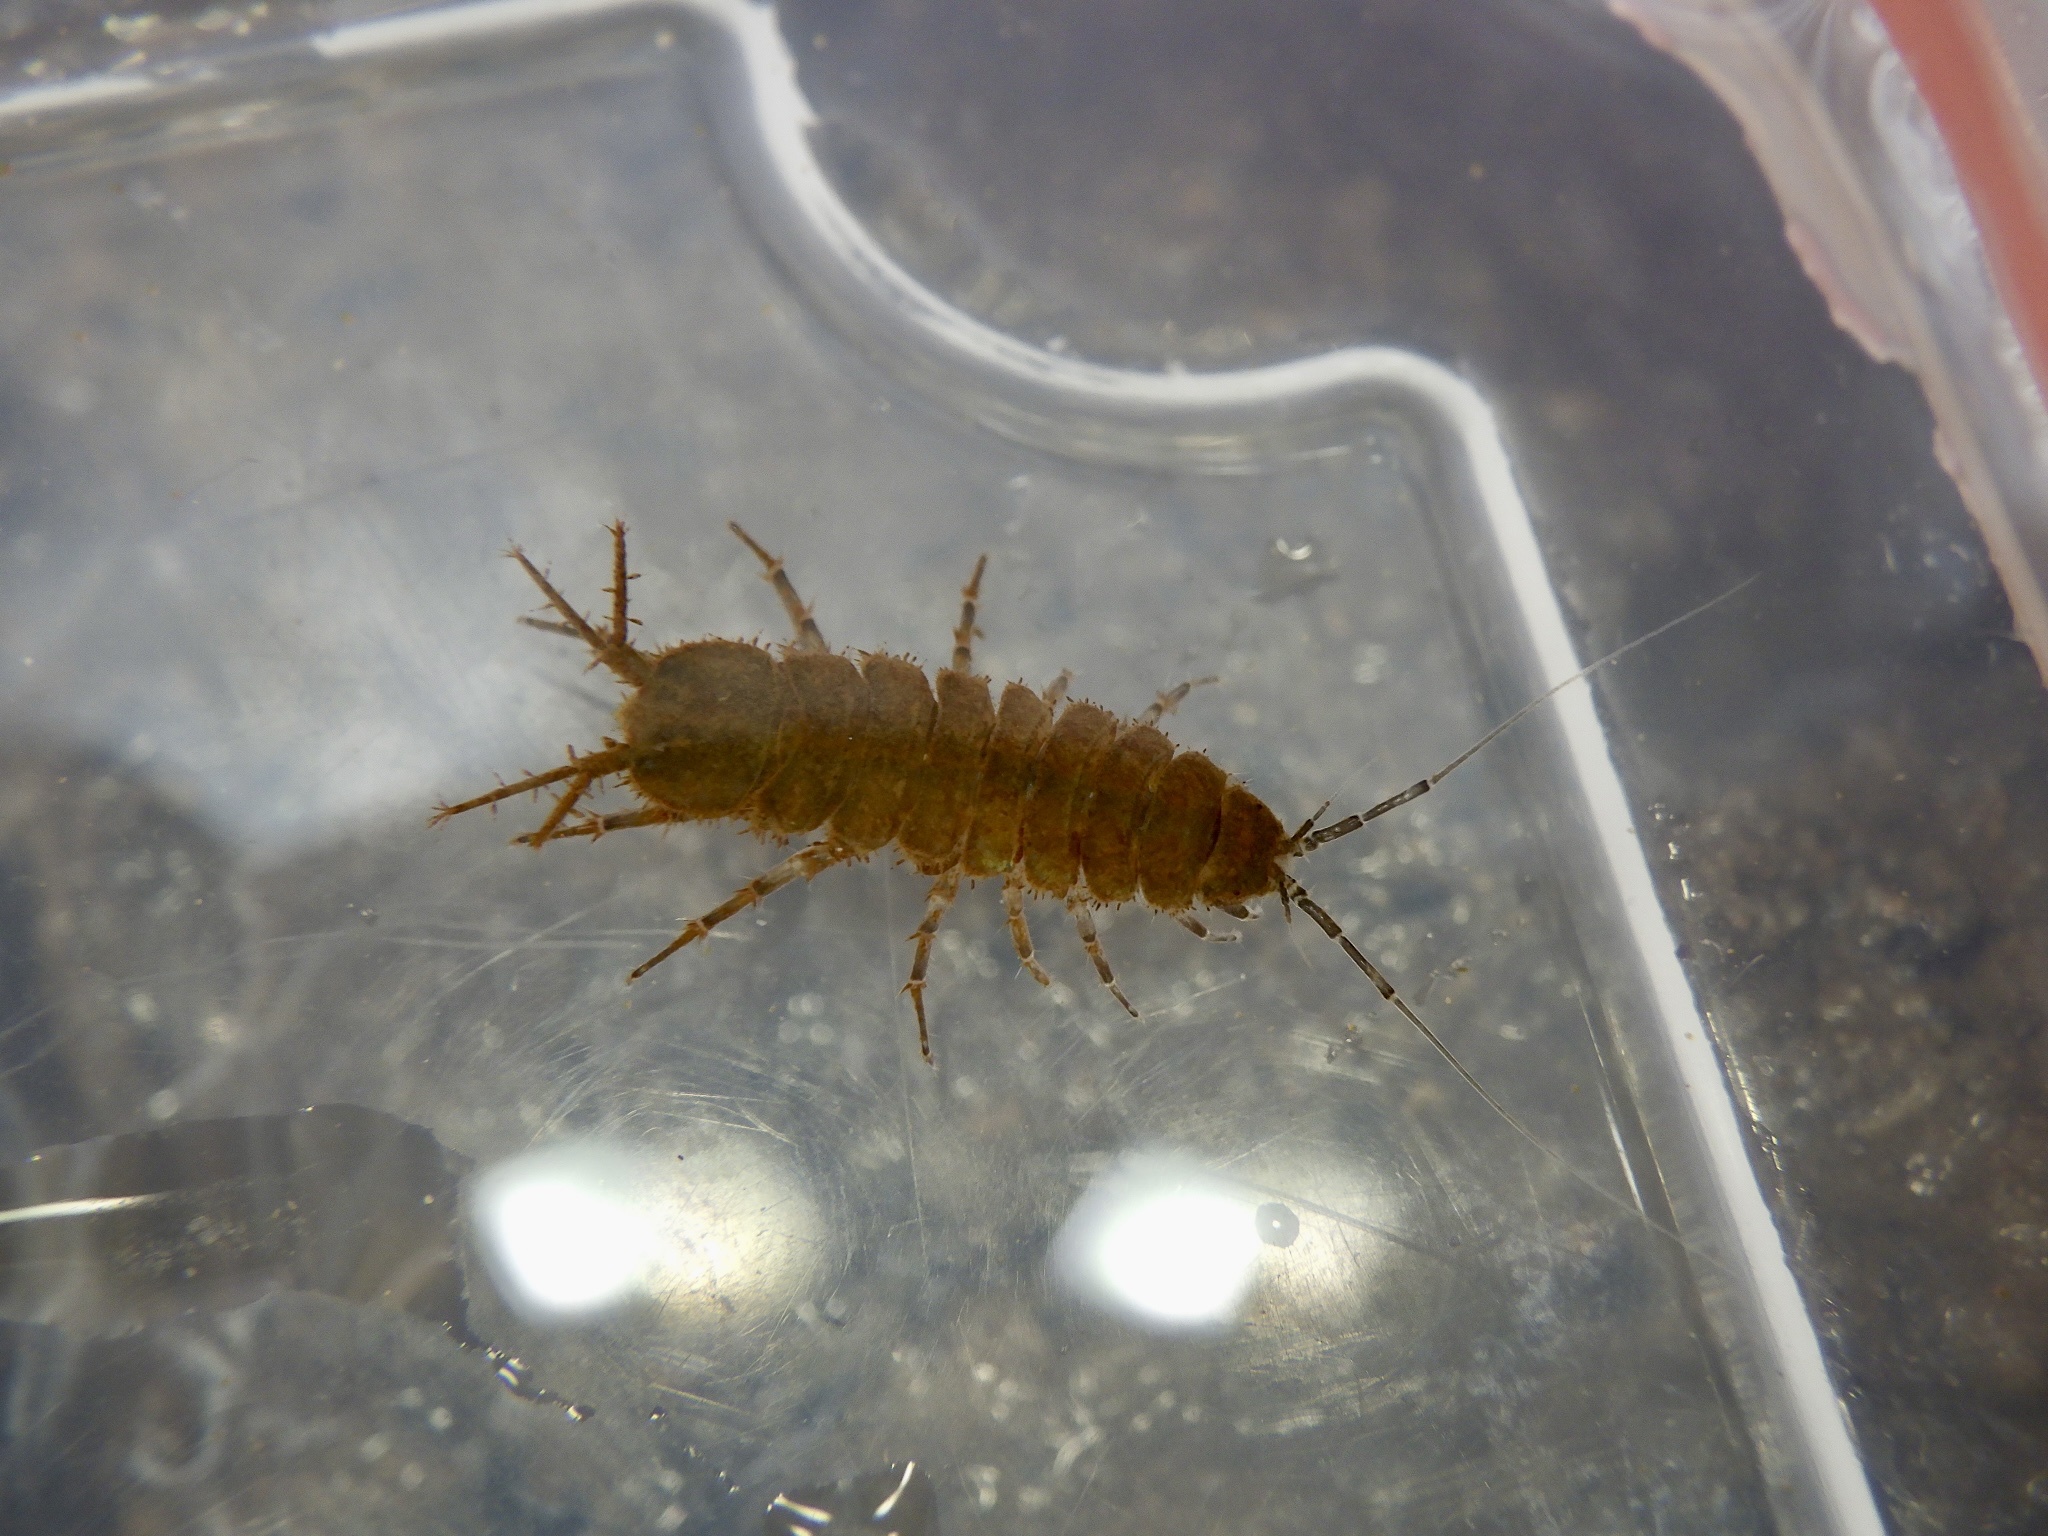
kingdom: Animalia
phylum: Arthropoda
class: Malacostraca
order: Isopoda
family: Asellidae
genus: Asellus
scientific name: Asellus hilgendorfii
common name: Isopod
